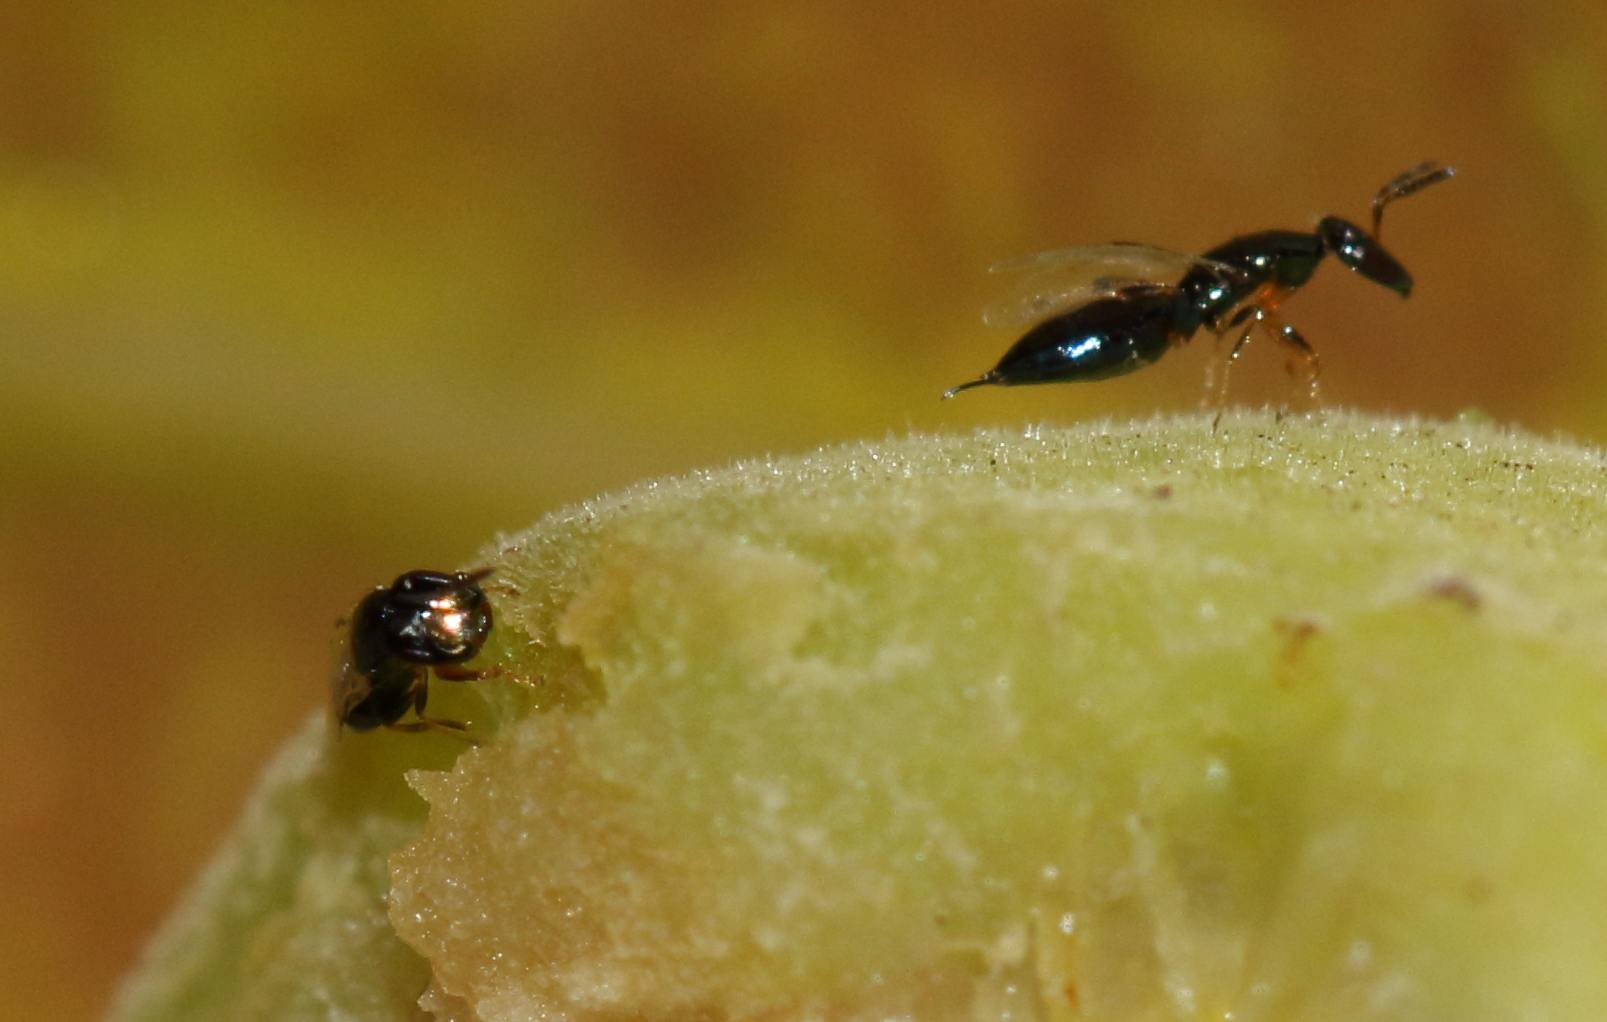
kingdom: Animalia
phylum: Arthropoda
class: Insecta
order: Hymenoptera
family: Agaonidae
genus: Seres
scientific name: Seres
